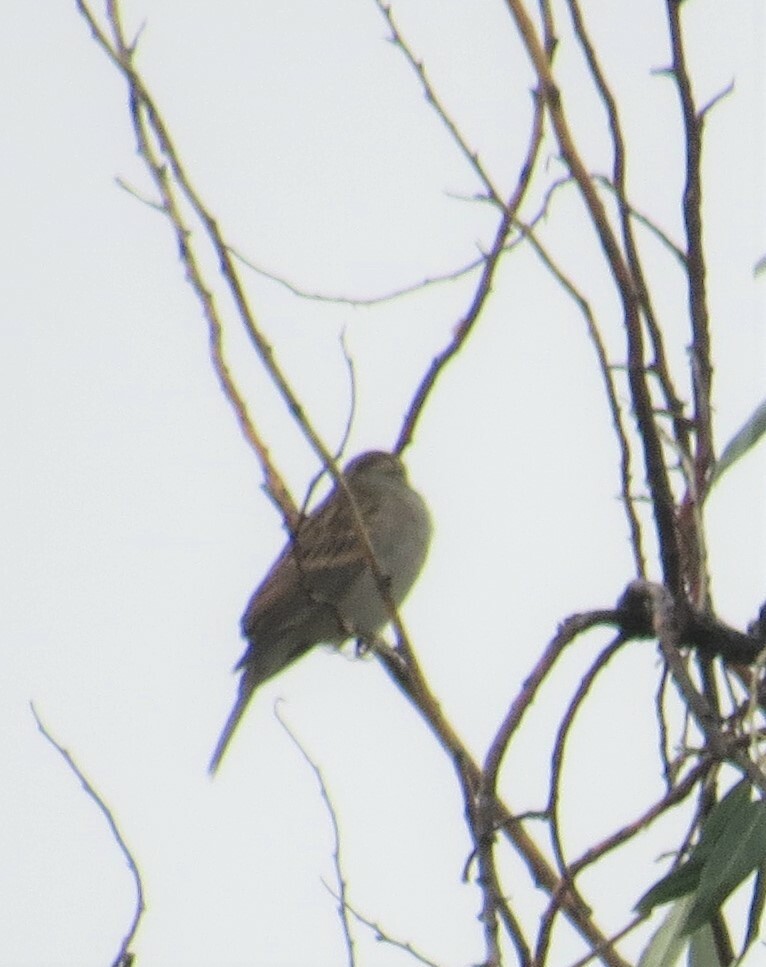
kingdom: Animalia
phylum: Chordata
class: Aves
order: Passeriformes
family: Passerellidae
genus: Spizella
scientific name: Spizella passerina
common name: Chipping sparrow
